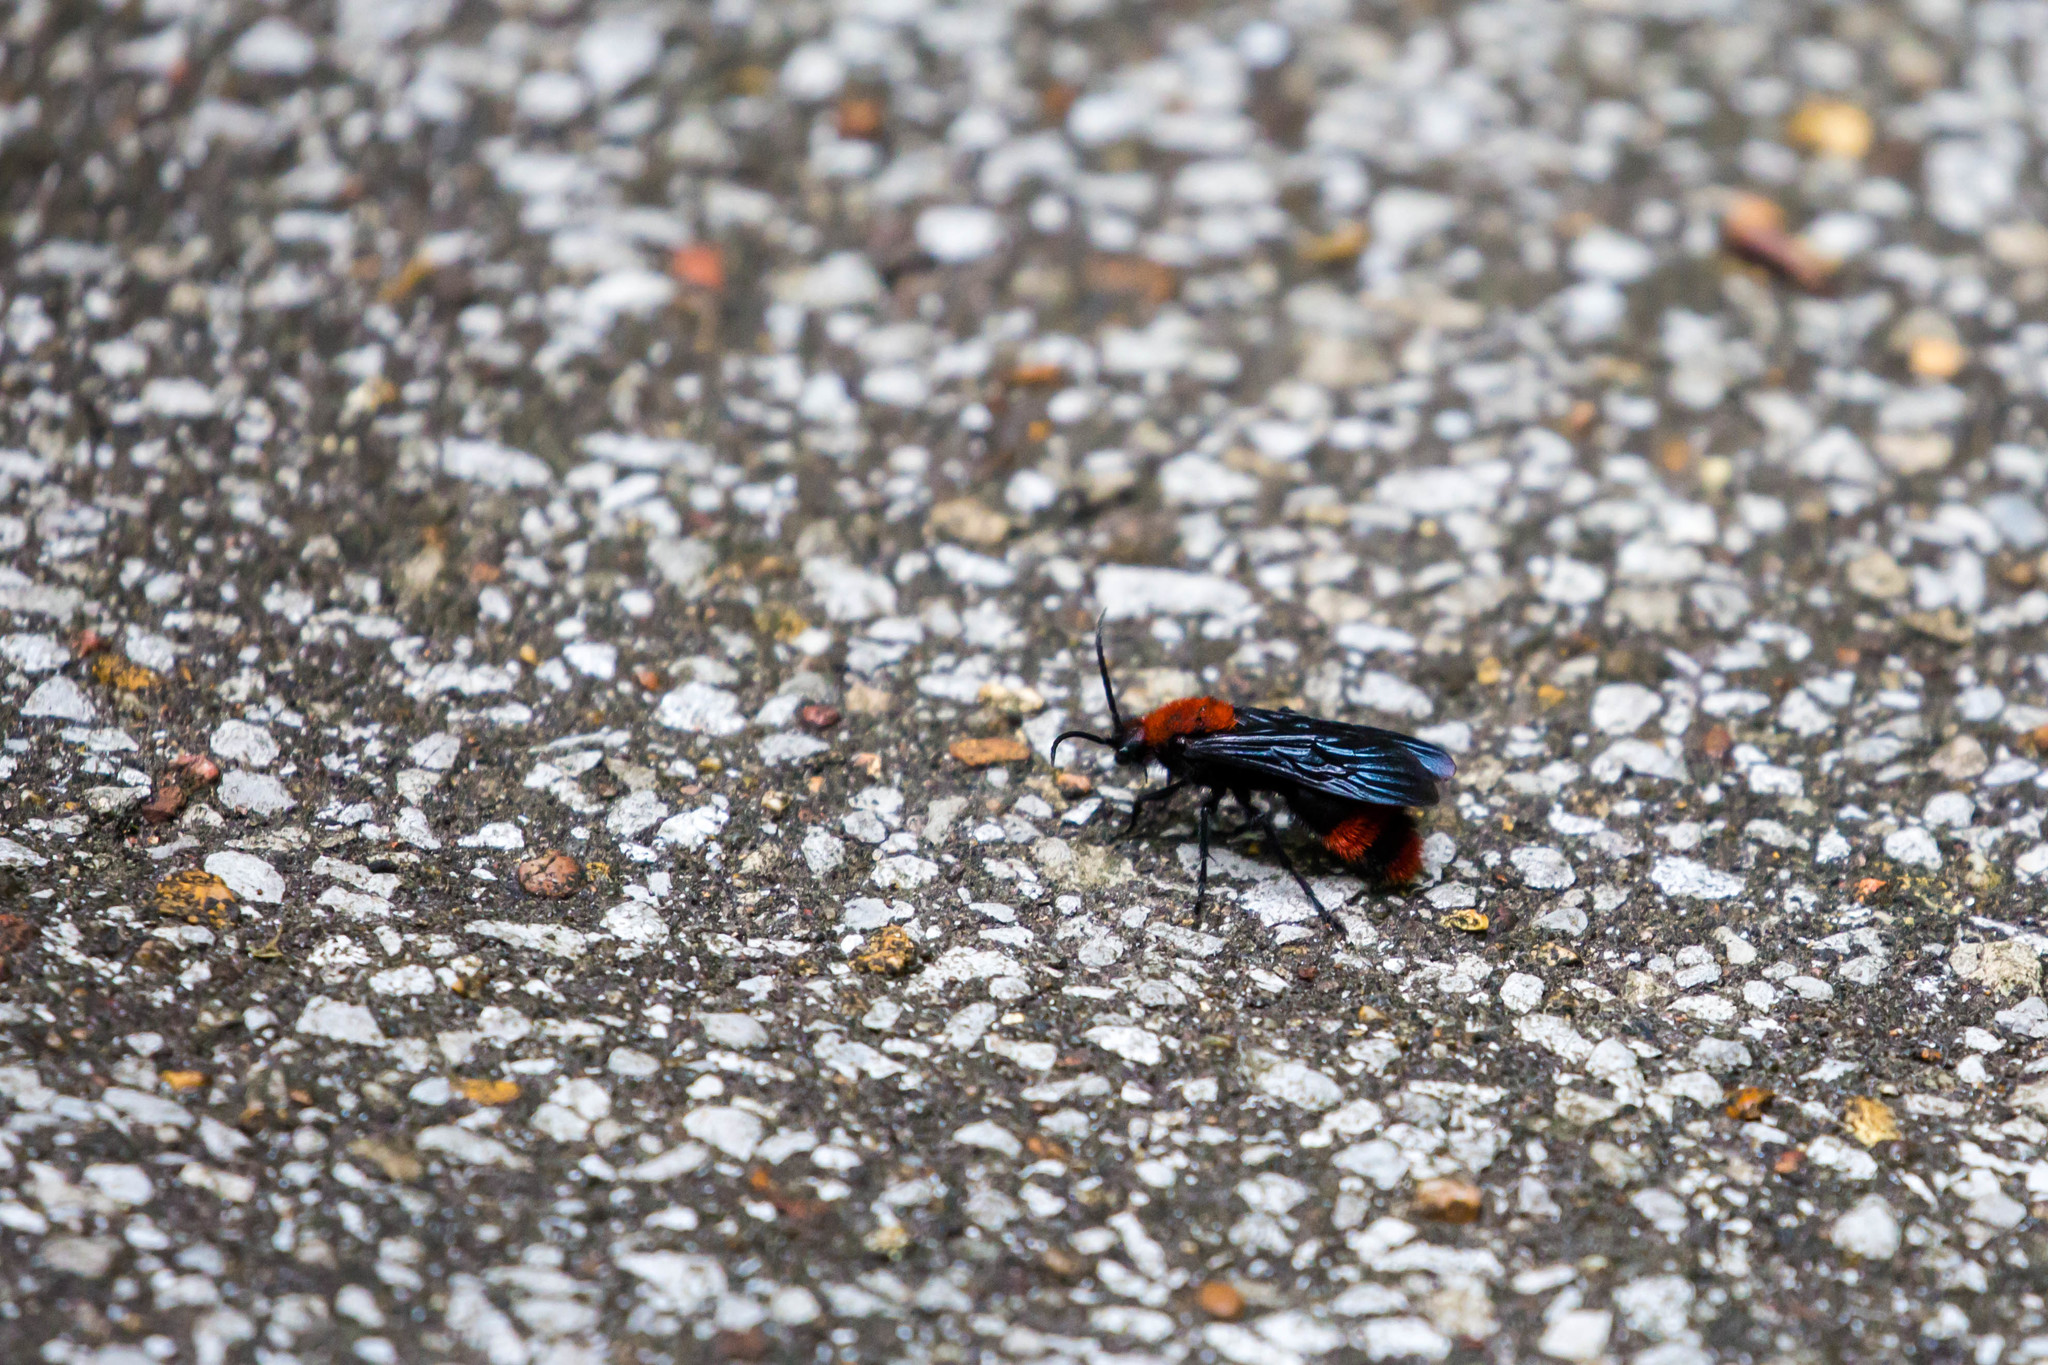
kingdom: Animalia
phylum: Arthropoda
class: Insecta
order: Hymenoptera
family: Mutillidae
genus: Dasymutilla
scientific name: Dasymutilla occidentalis
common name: Common eastern velvet ant
